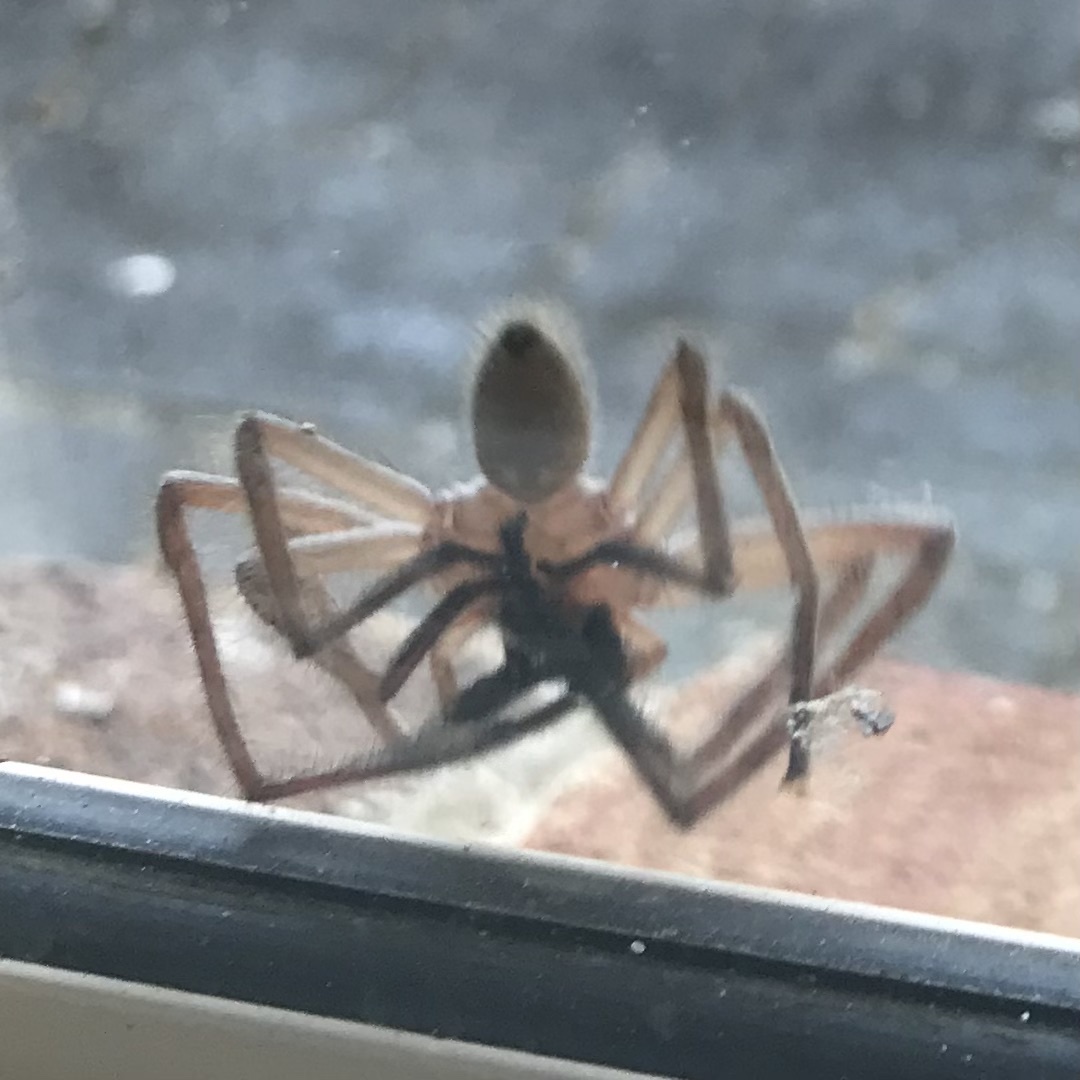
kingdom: Animalia
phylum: Arthropoda
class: Arachnida
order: Araneae
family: Sparassidae
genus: Delena
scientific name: Delena cancerides
